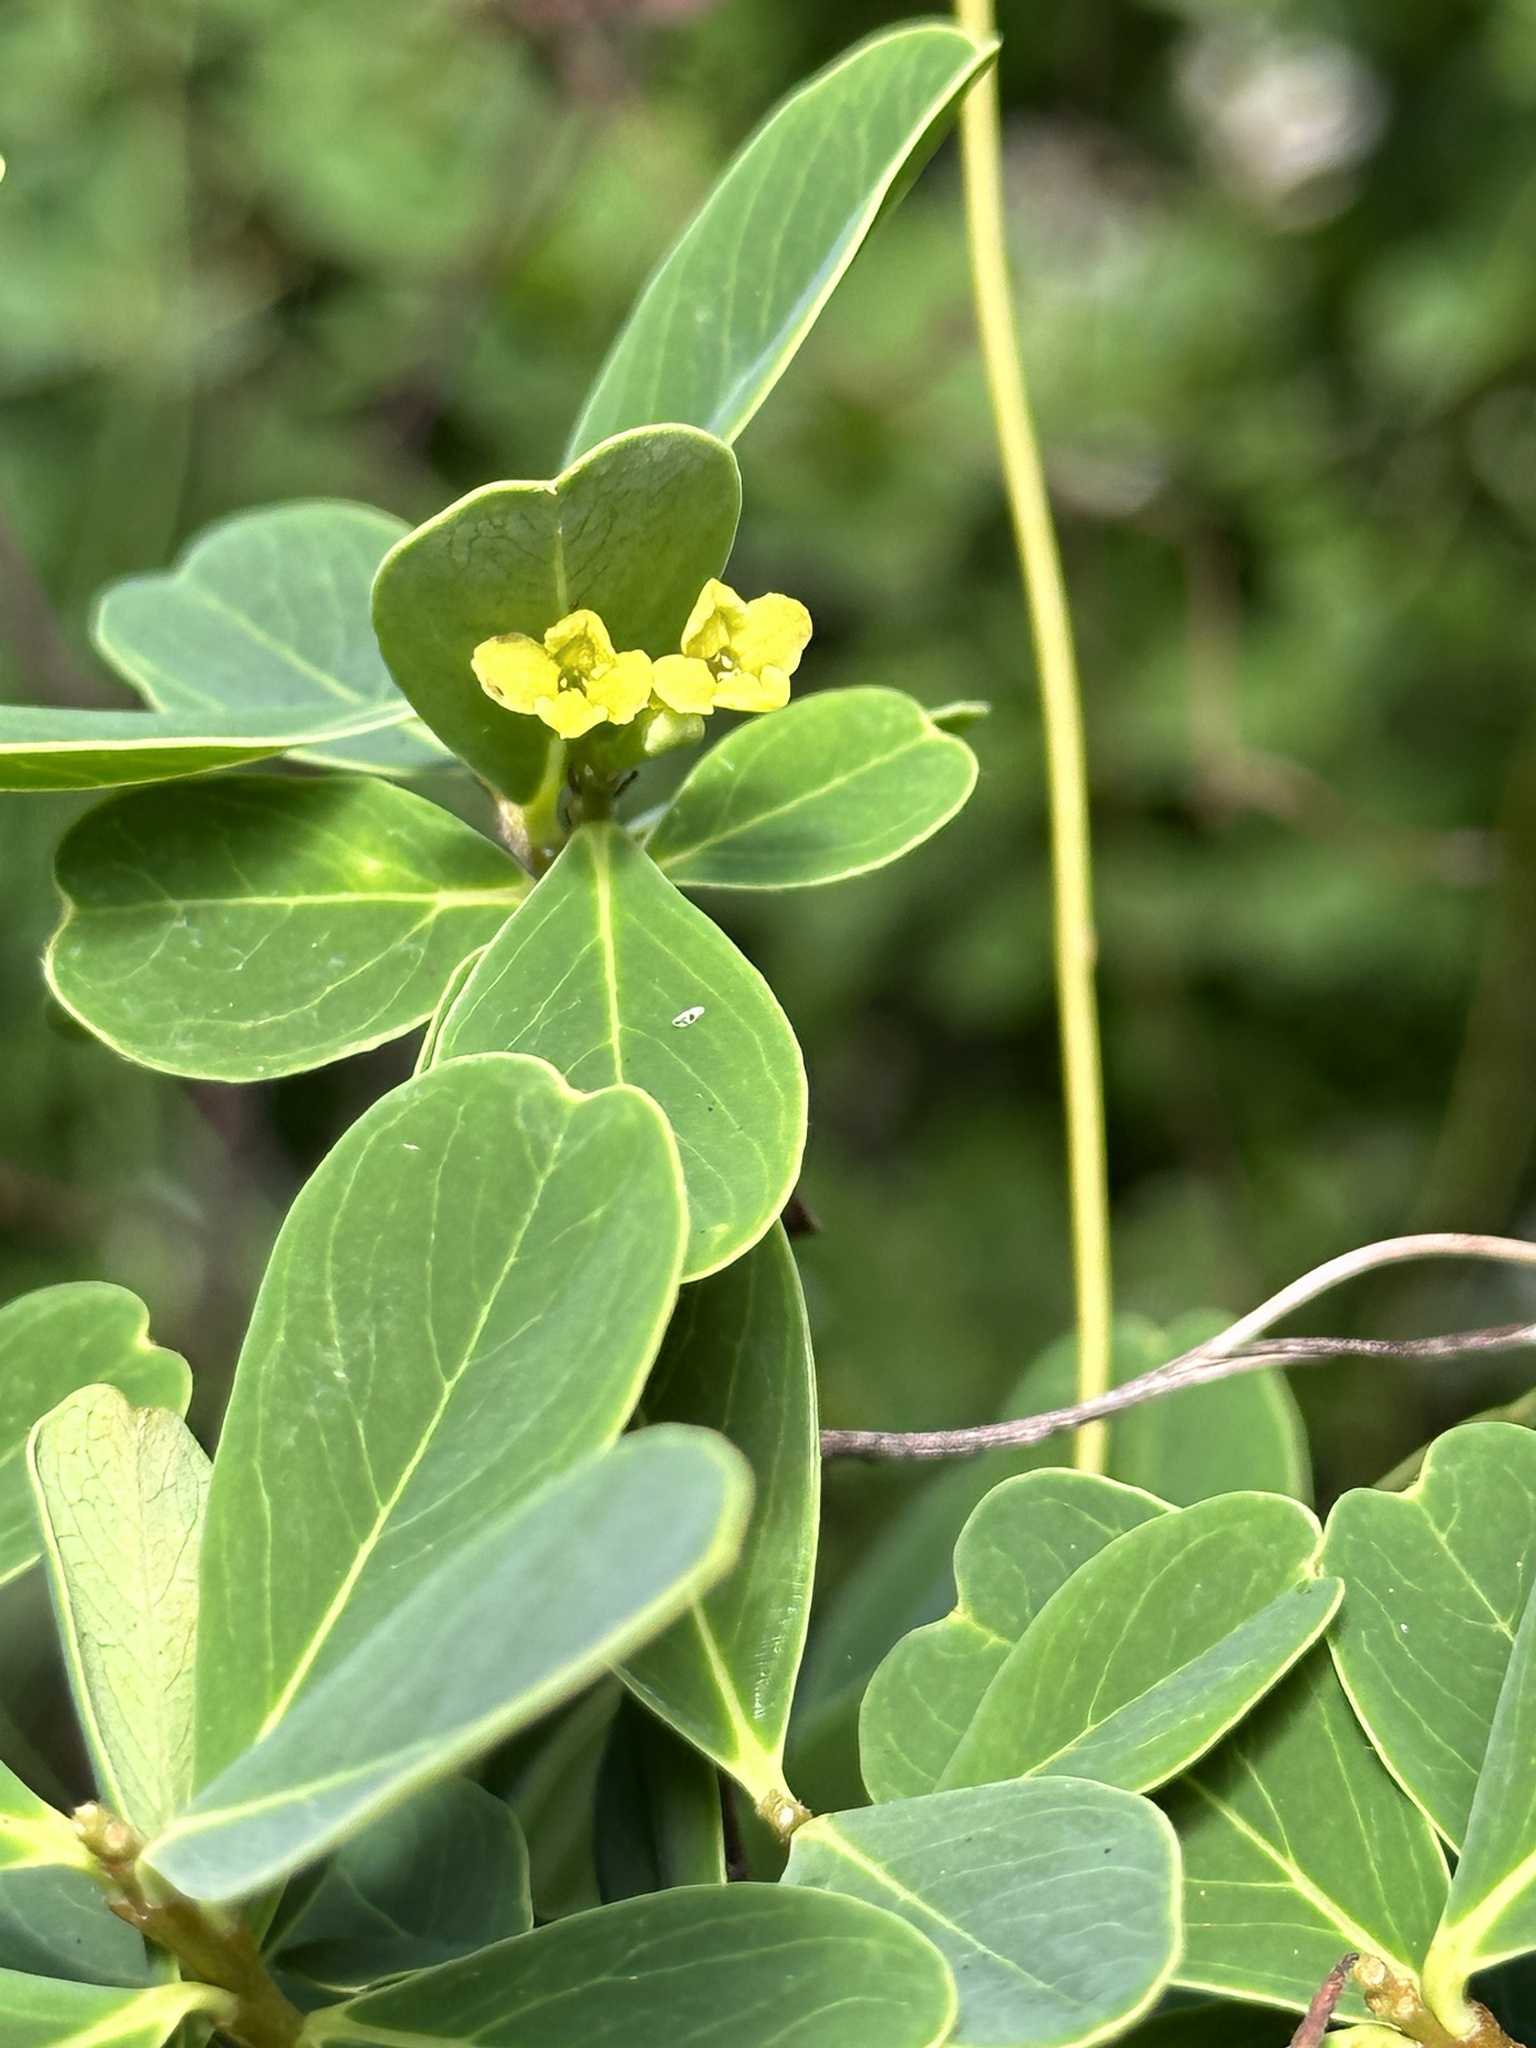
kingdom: Plantae
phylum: Tracheophyta
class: Magnoliopsida
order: Malvales
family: Thymelaeaceae
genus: Wikstroemia
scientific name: Wikstroemia pseudoretusa
